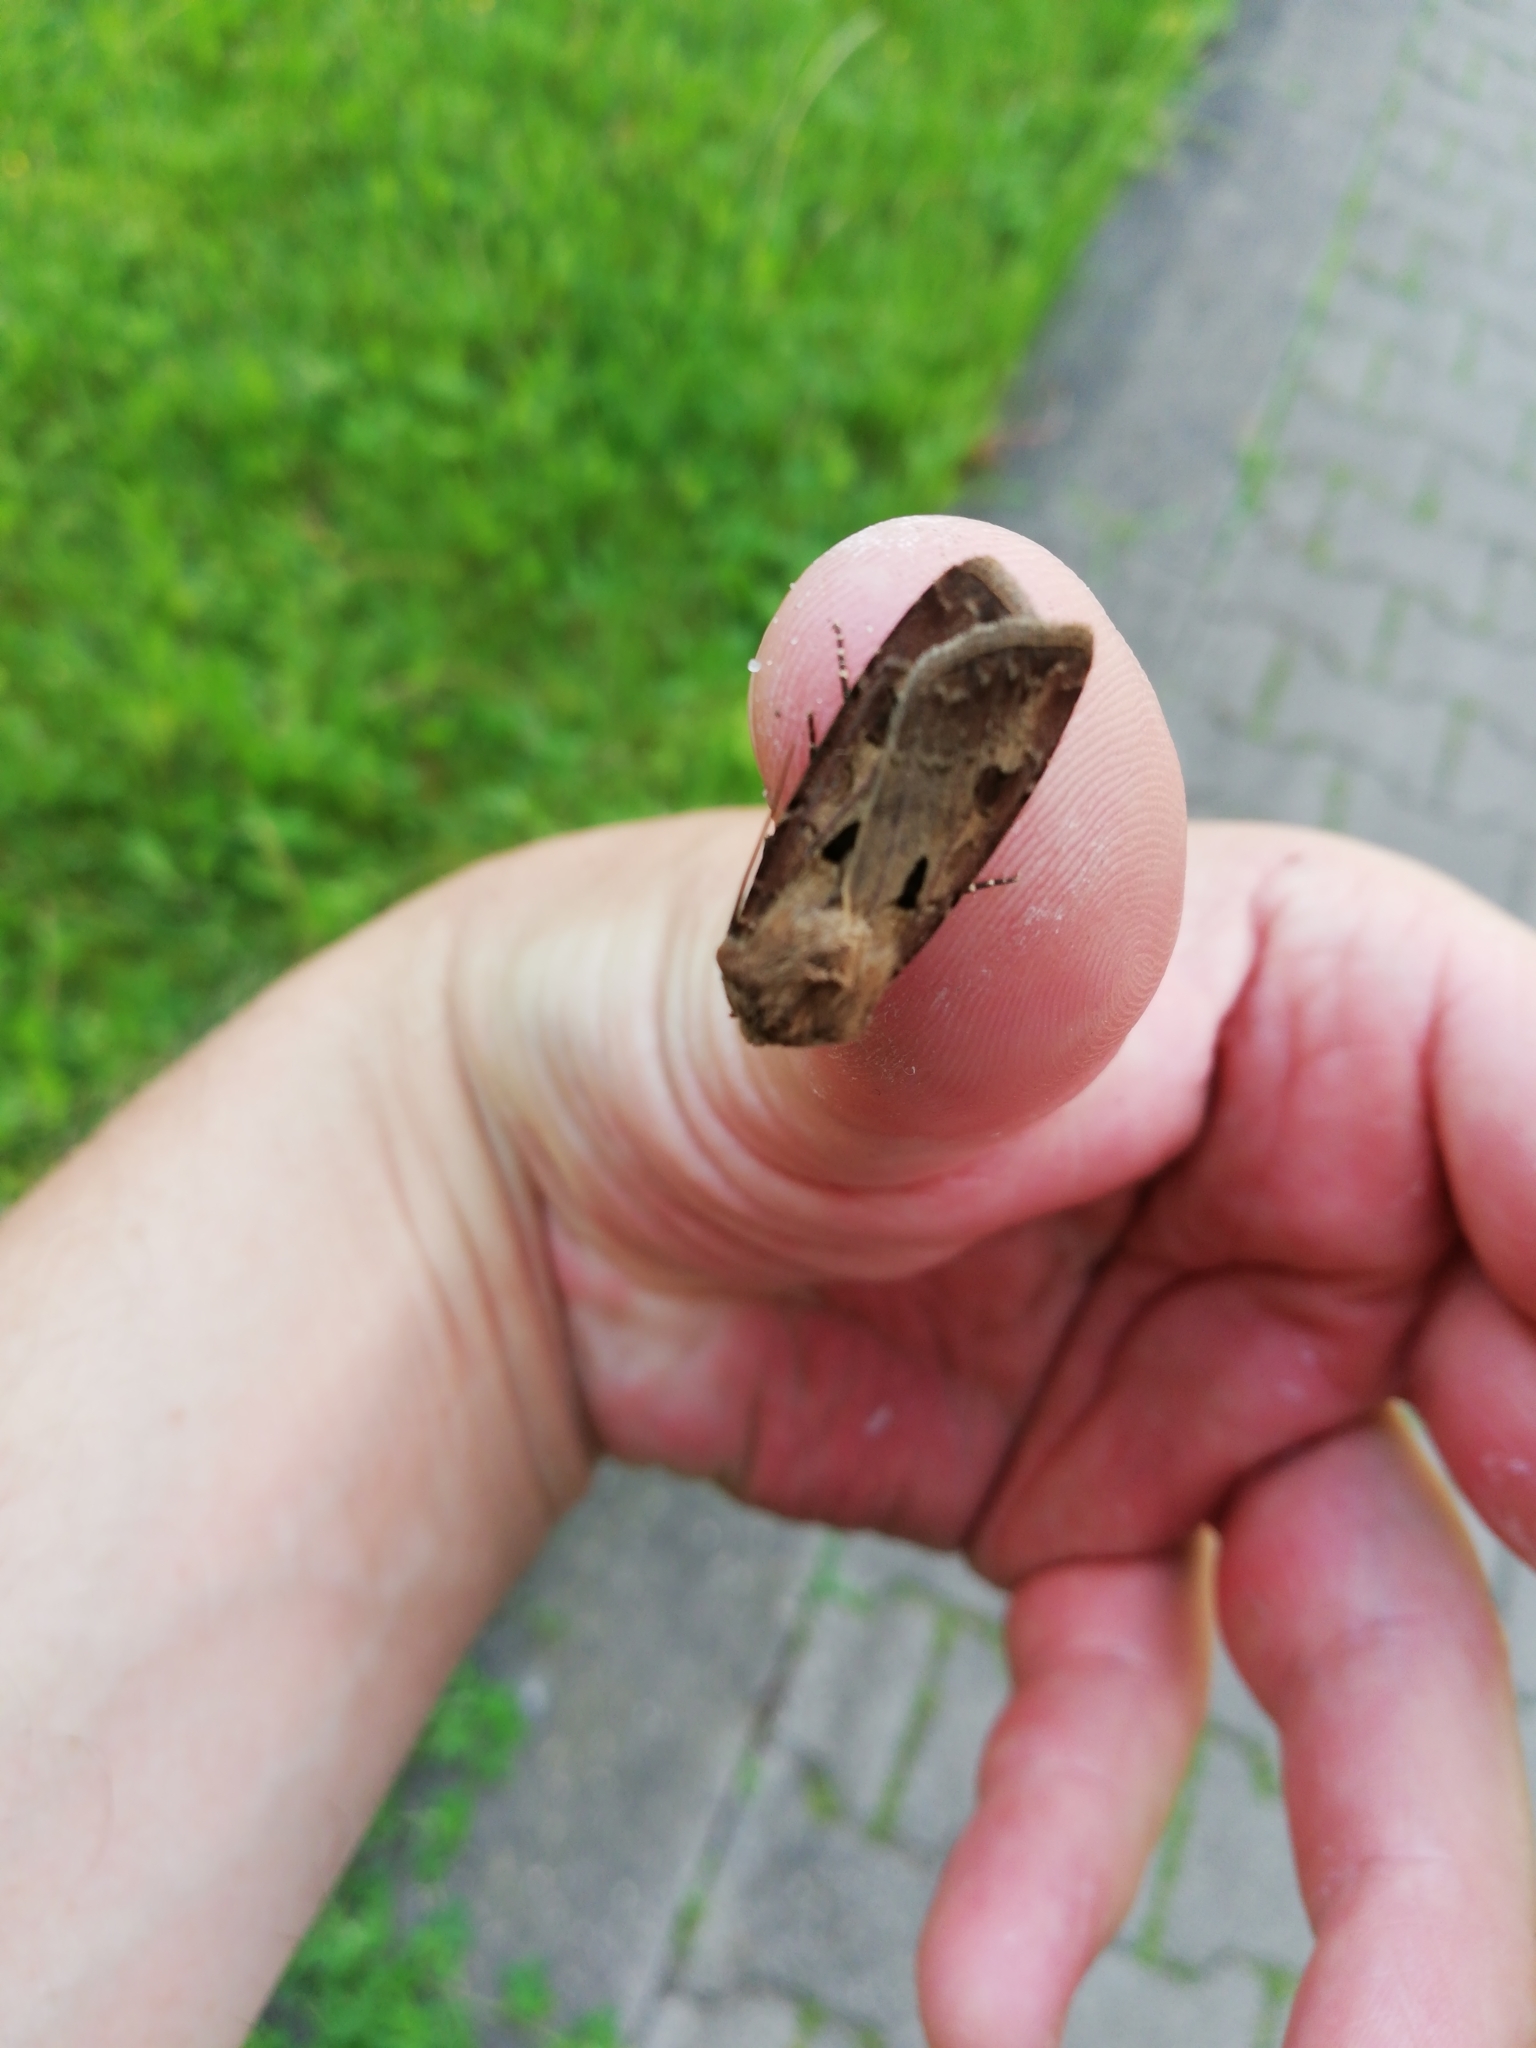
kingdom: Animalia
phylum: Arthropoda
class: Insecta
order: Lepidoptera
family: Noctuidae
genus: Agrotis
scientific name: Agrotis exclamationis
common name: Heart and dart
